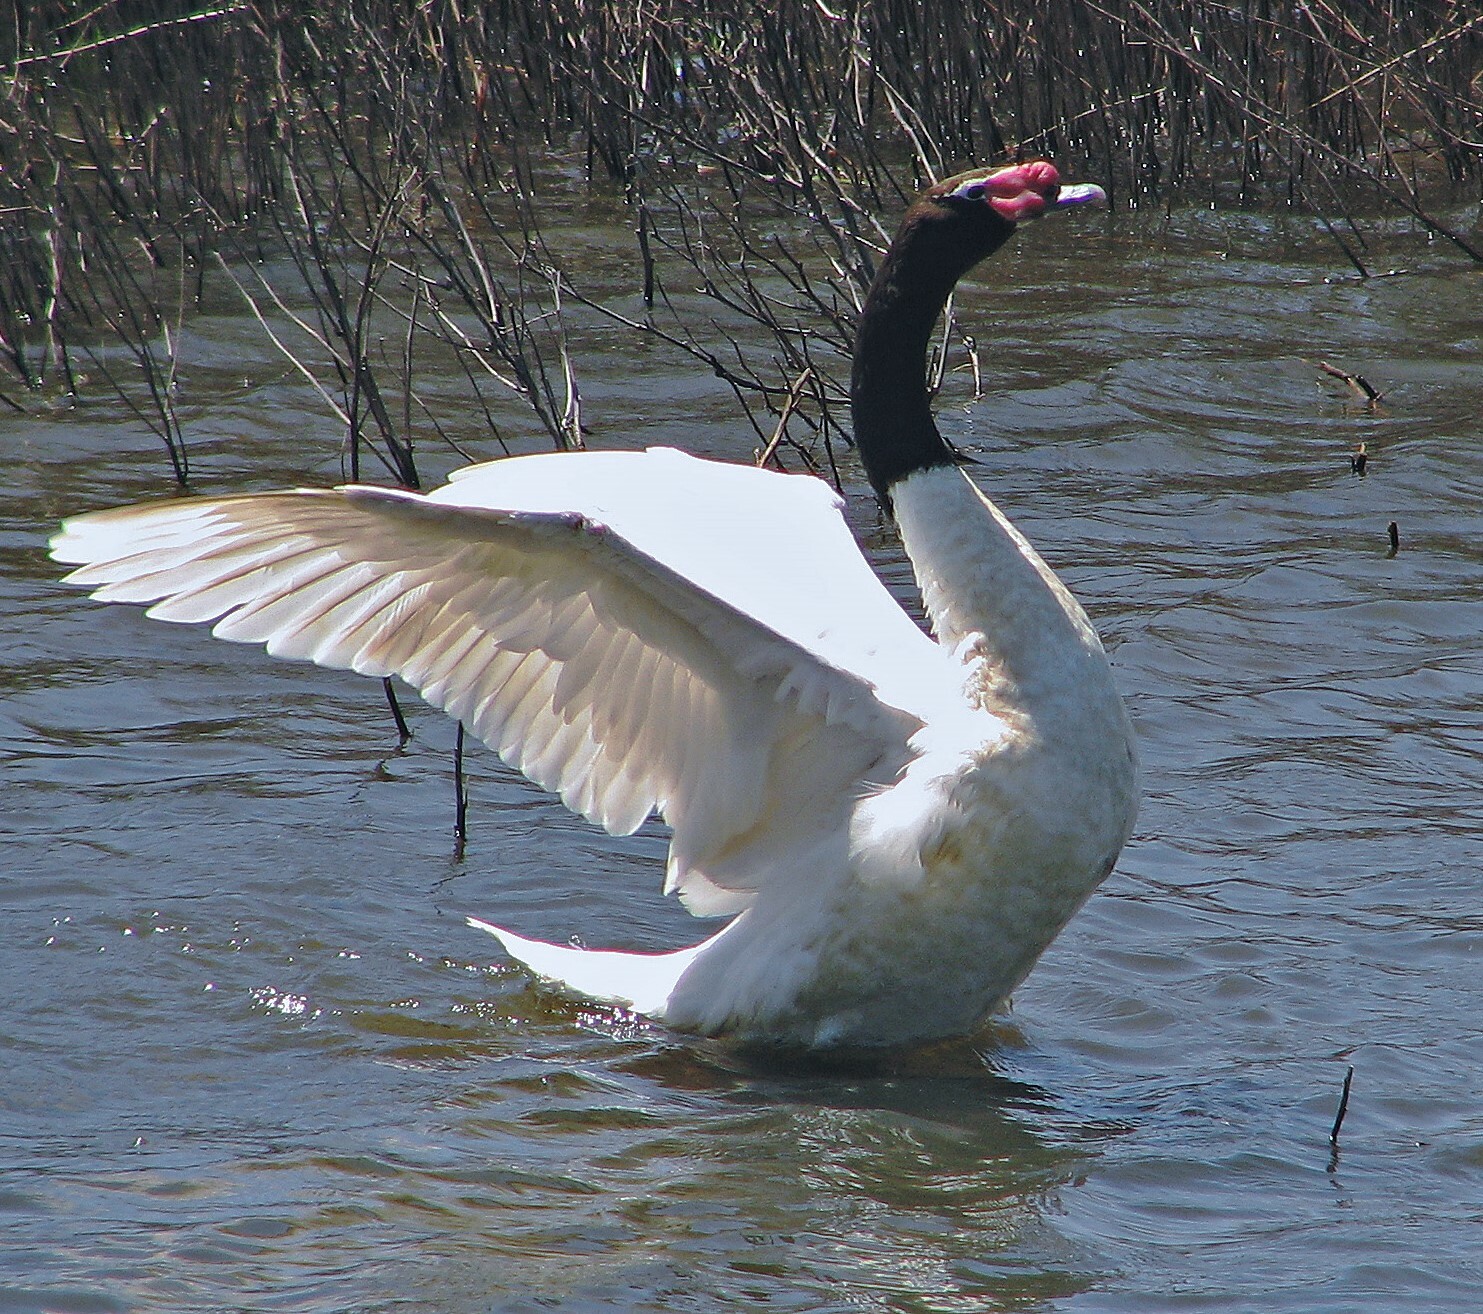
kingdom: Animalia
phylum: Chordata
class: Aves
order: Anseriformes
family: Anatidae
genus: Cygnus
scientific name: Cygnus melancoryphus
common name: Black-necked swan
